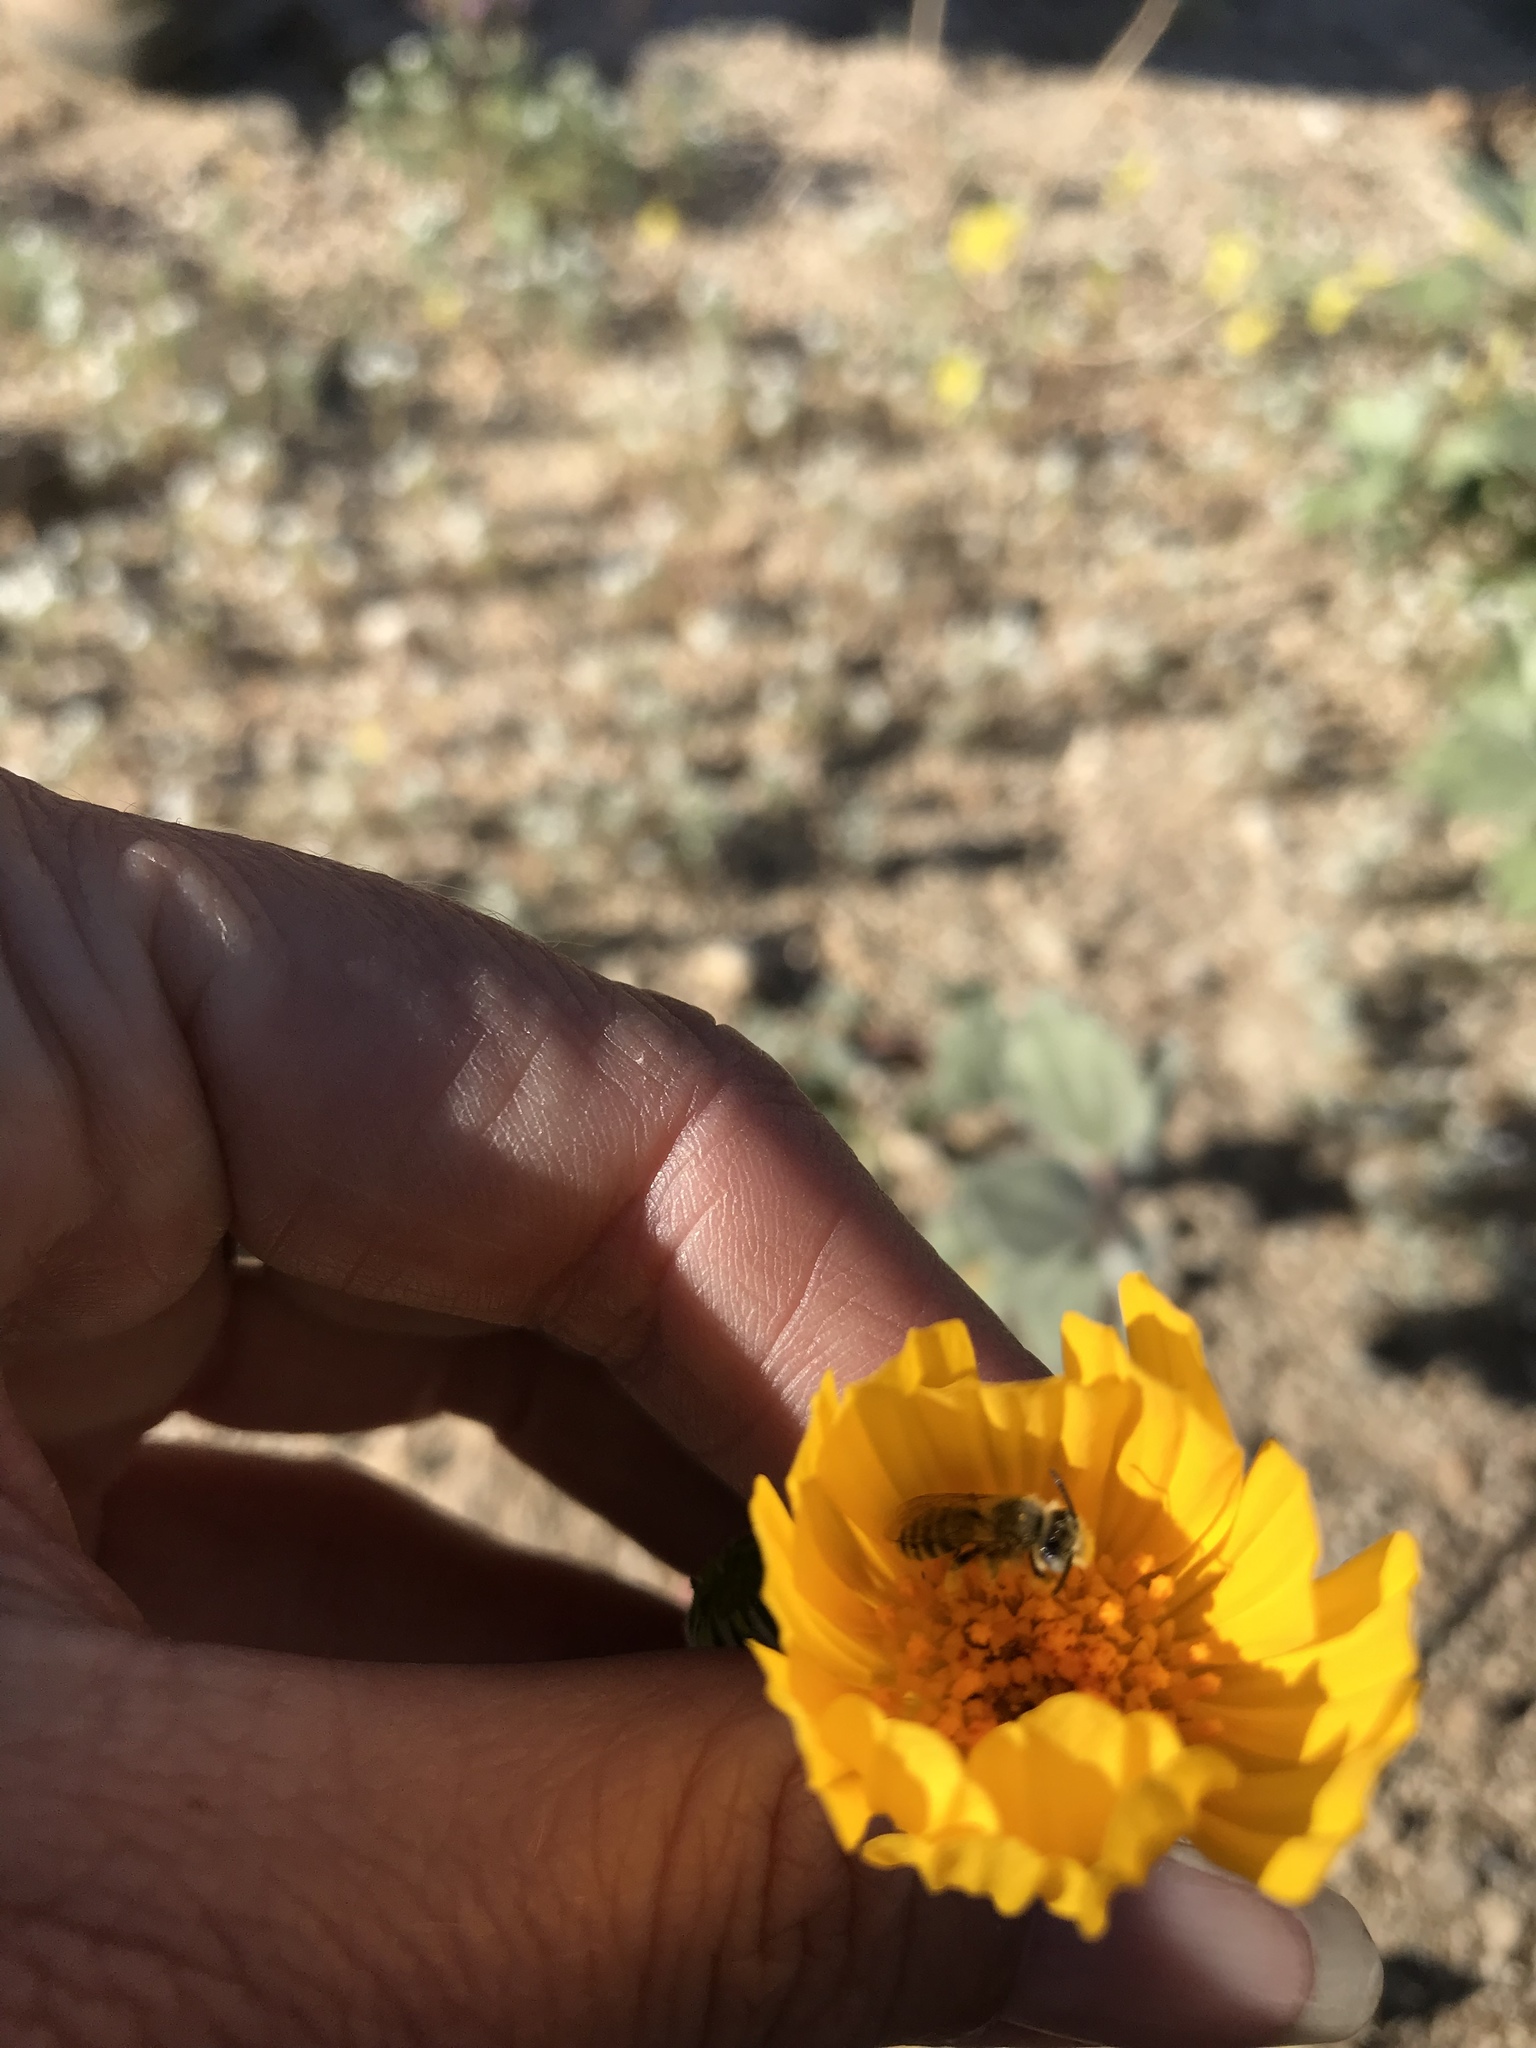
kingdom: Animalia
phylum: Arthropoda
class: Insecta
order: Hymenoptera
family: Melittidae
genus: Hesperapis
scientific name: Hesperapis
